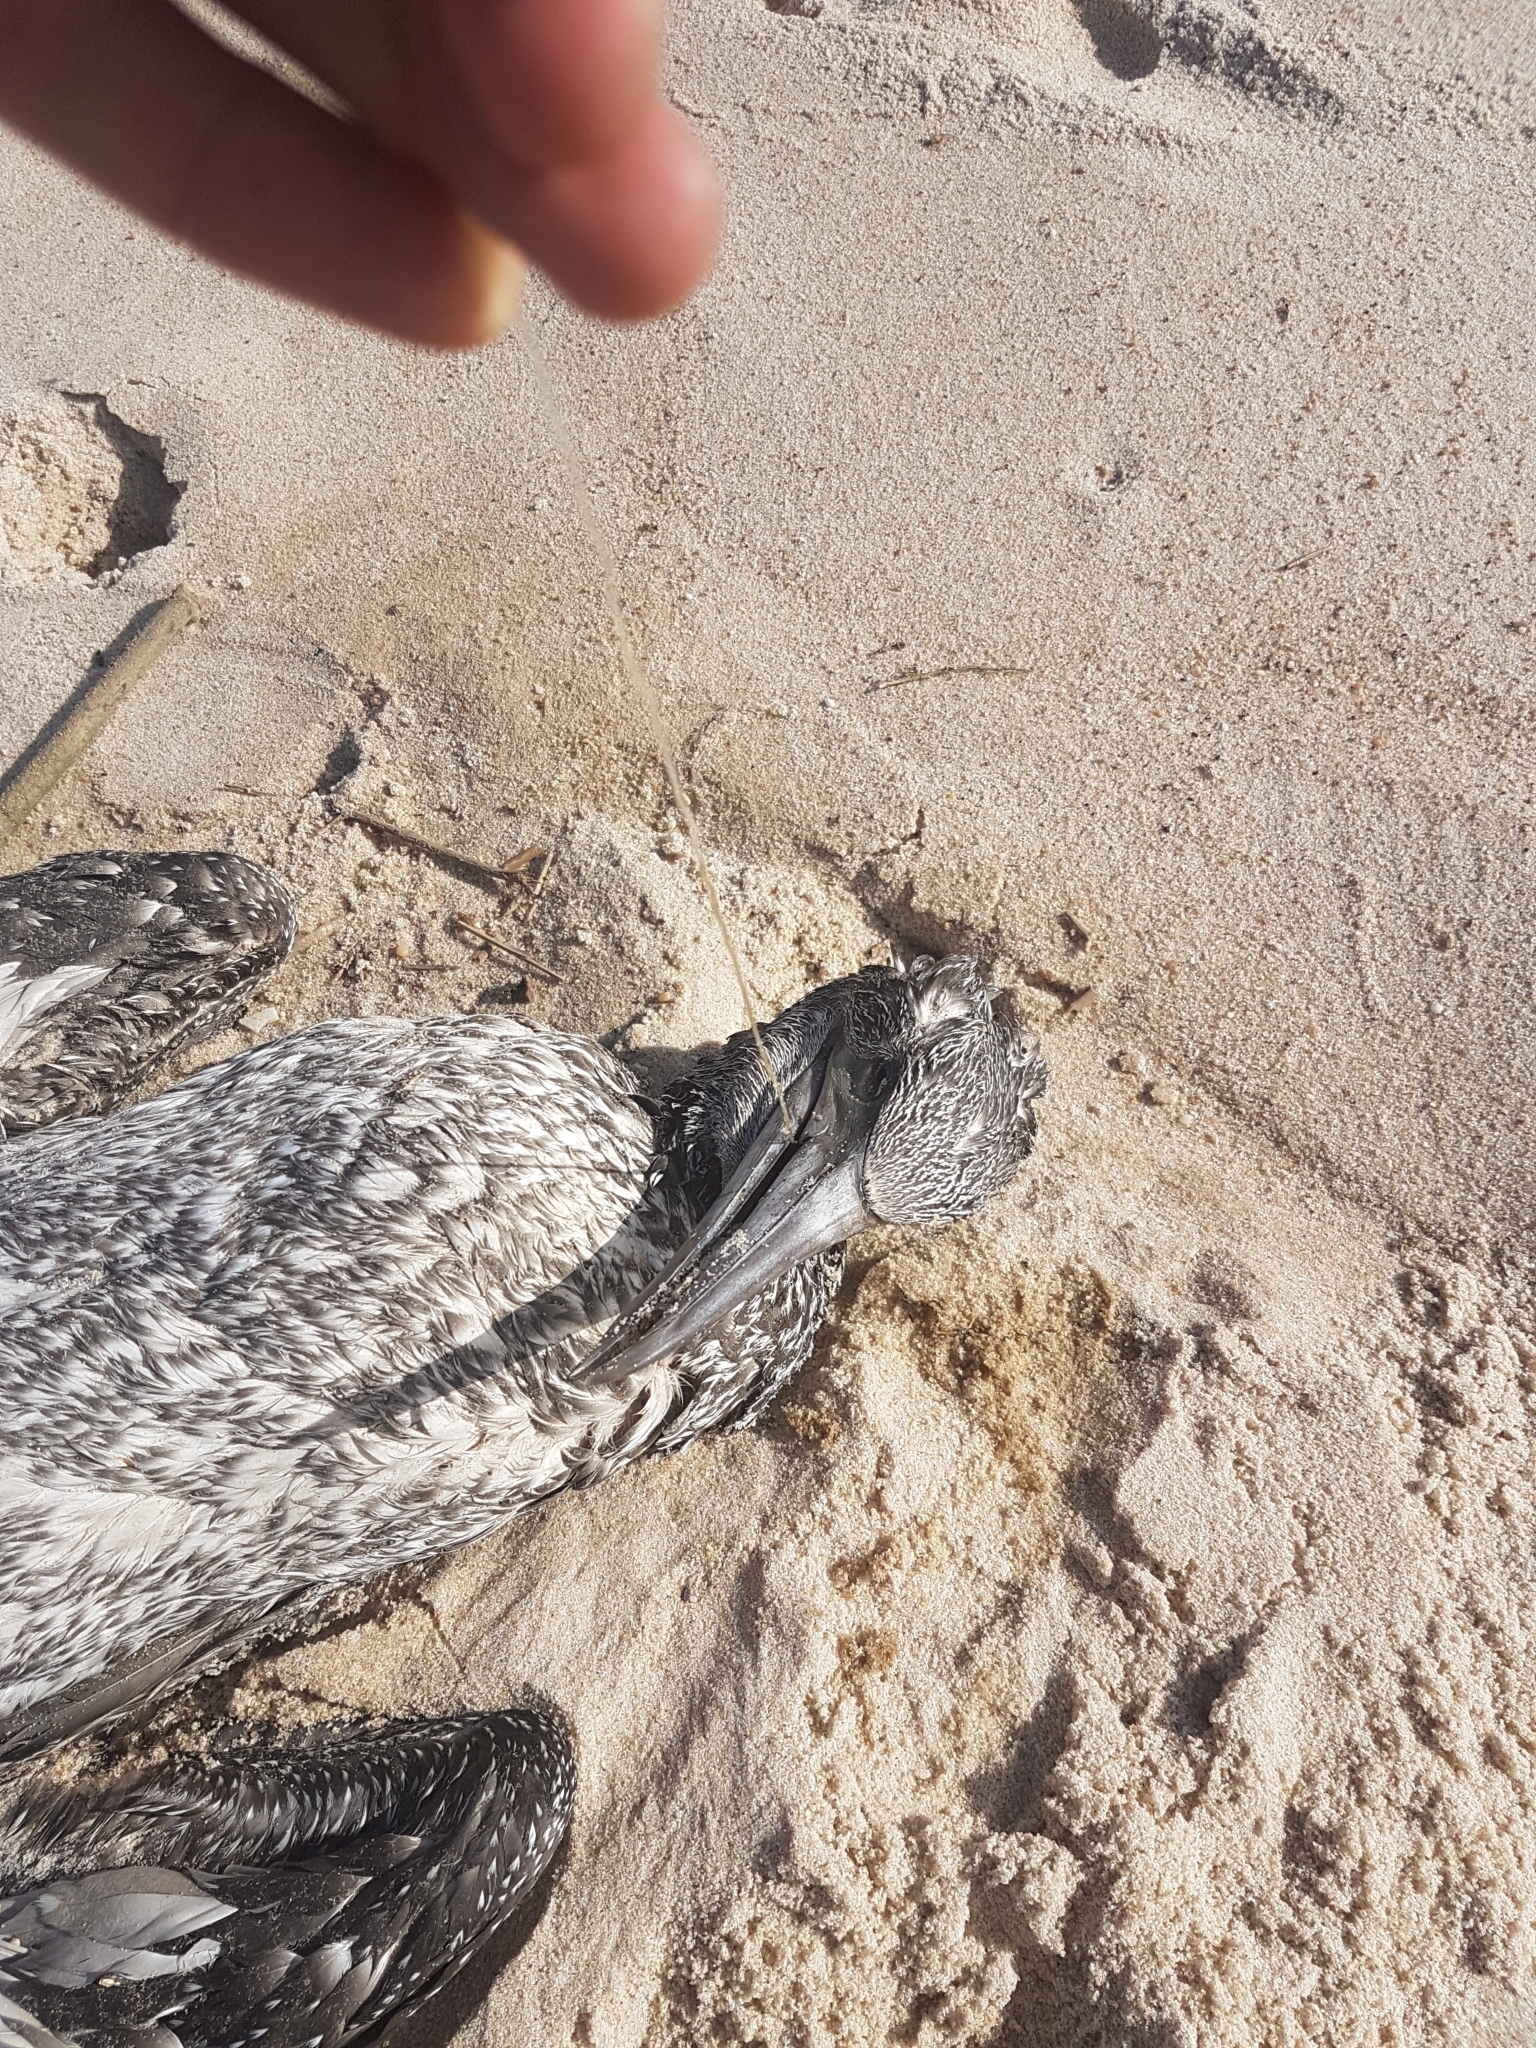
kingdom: Animalia
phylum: Chordata
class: Aves
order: Suliformes
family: Sulidae
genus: Morus
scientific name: Morus bassanus
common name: Northern gannet
